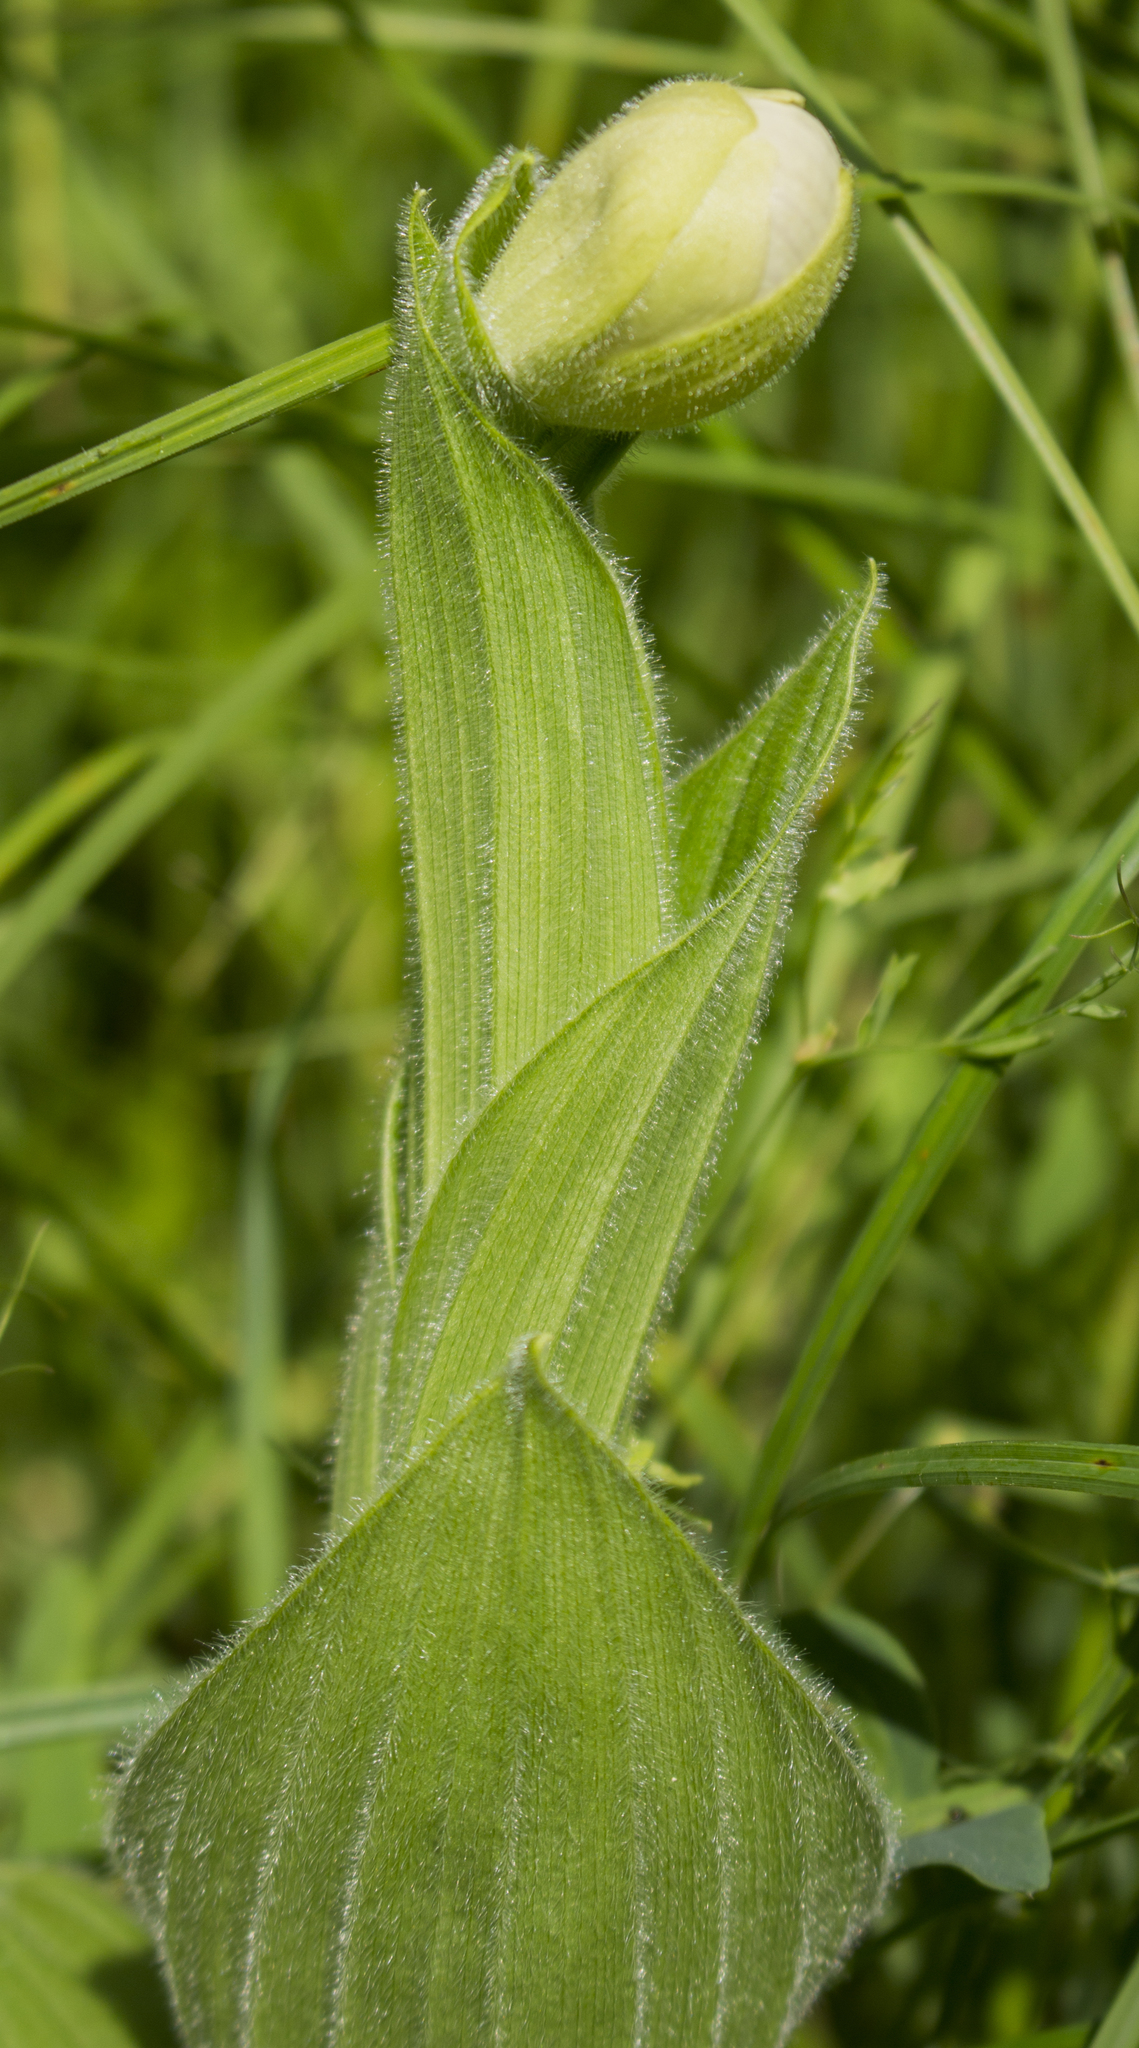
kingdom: Plantae
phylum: Tracheophyta
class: Liliopsida
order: Asparagales
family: Orchidaceae
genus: Cypripedium
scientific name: Cypripedium reginae
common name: Queen lady's-slipper
